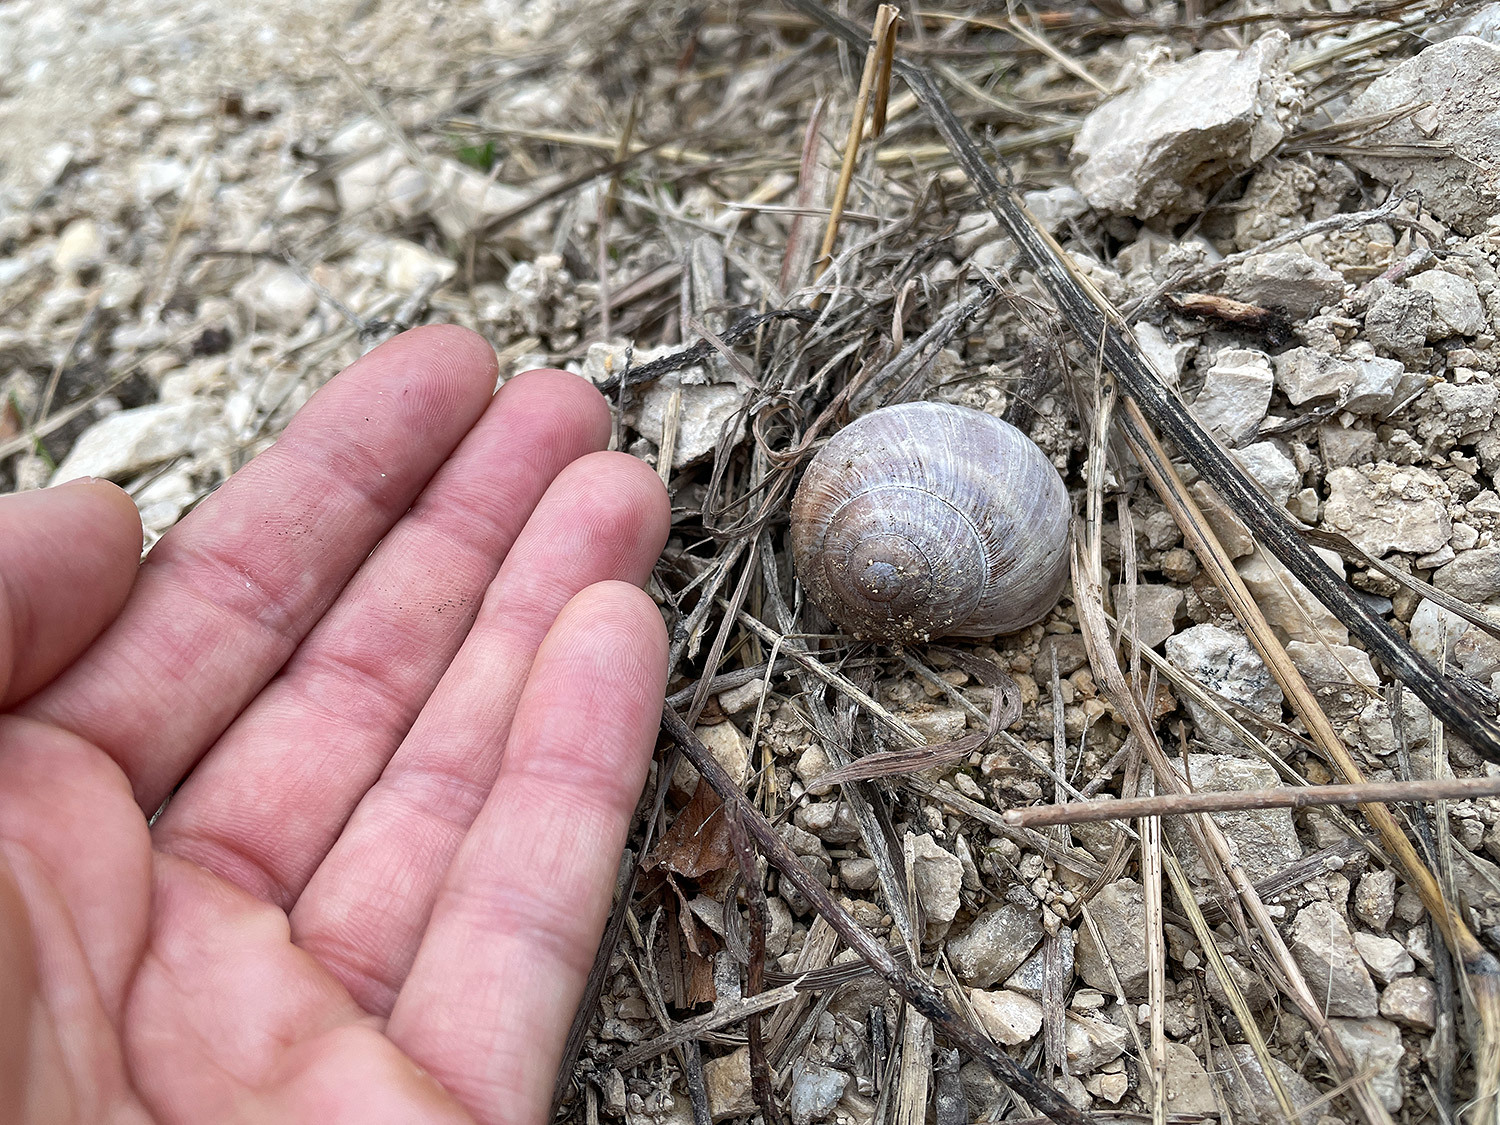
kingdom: Animalia
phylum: Mollusca
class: Gastropoda
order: Stylommatophora
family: Helicidae
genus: Helix
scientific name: Helix pomatia
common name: Roman snail
